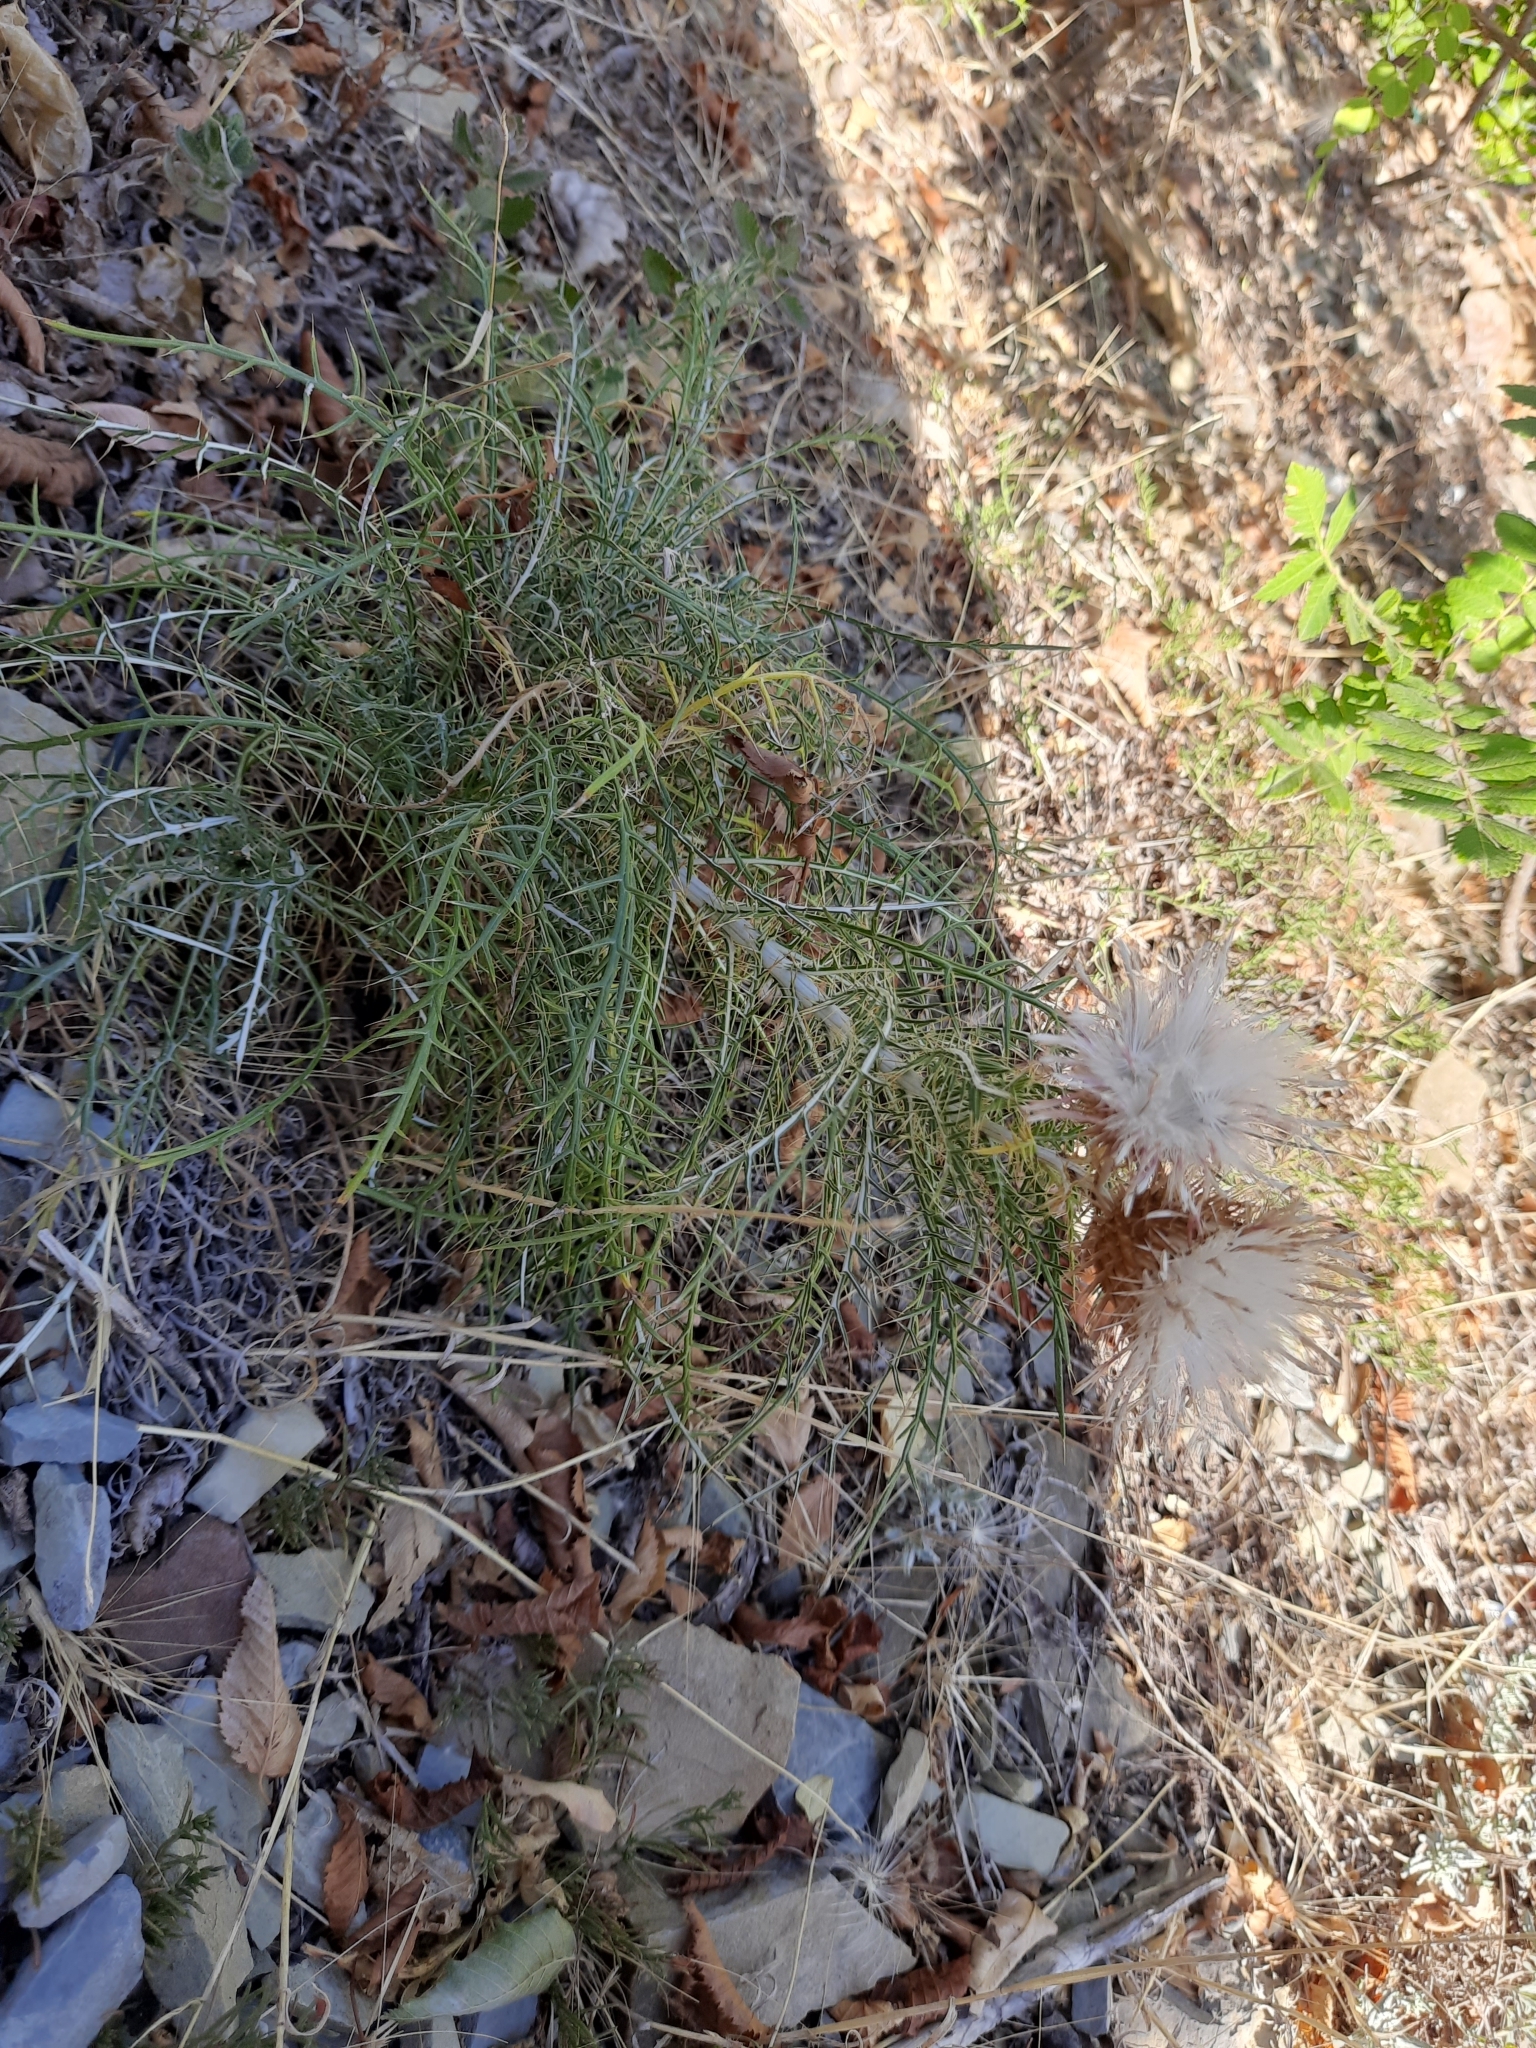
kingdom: Plantae
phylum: Tracheophyta
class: Magnoliopsida
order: Asterales
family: Asteraceae
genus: Ptilostemon
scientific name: Ptilostemon echinocephalus
